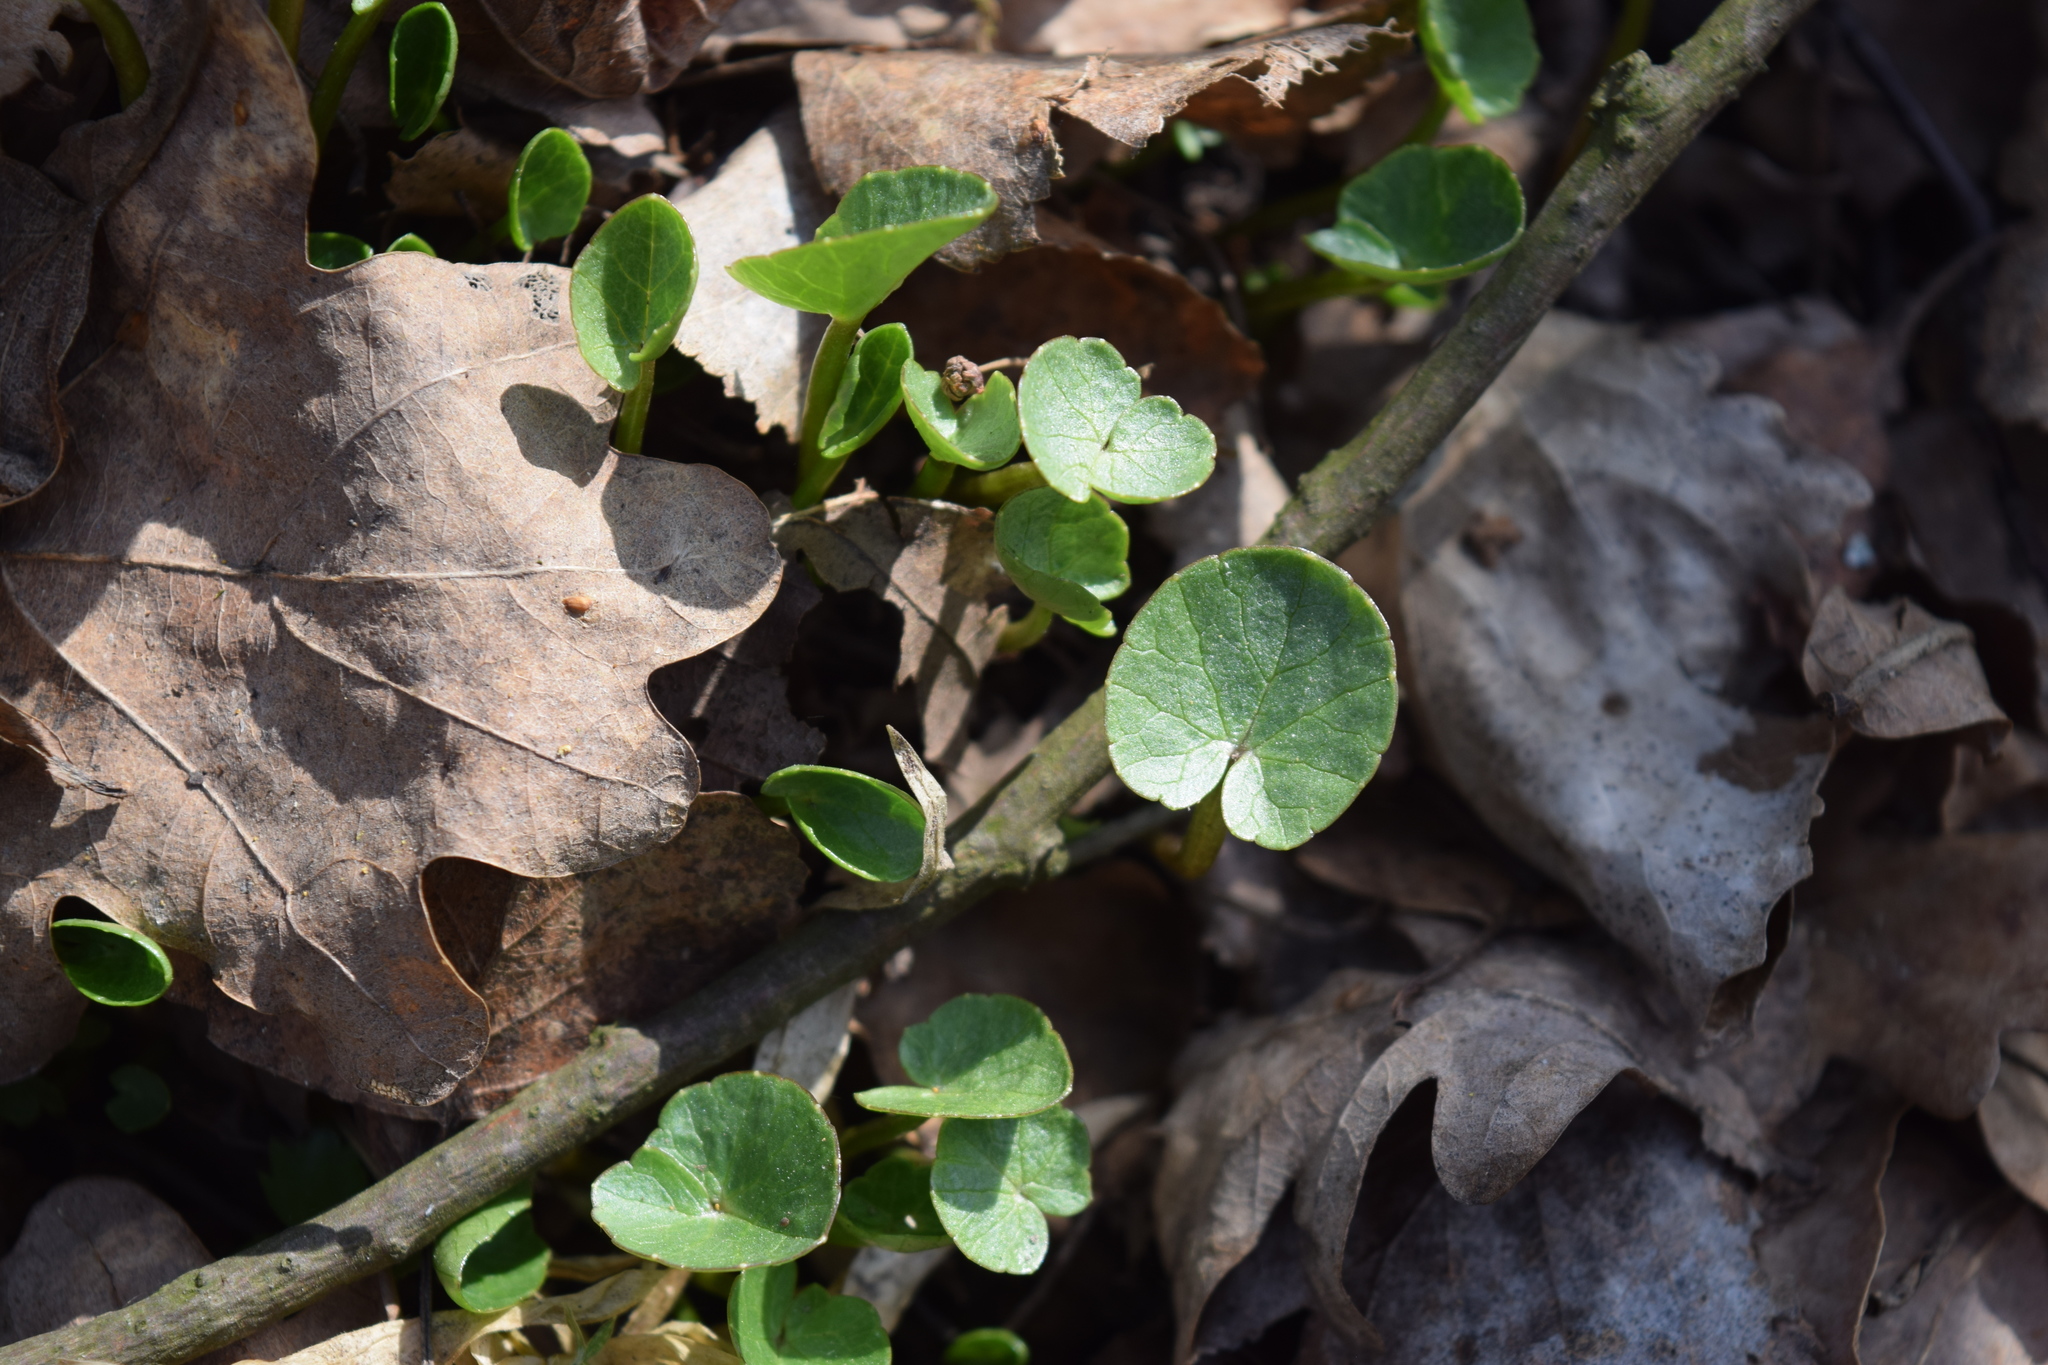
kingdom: Plantae
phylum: Tracheophyta
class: Magnoliopsida
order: Ranunculales
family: Ranunculaceae
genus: Ficaria
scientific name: Ficaria verna
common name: Lesser celandine
